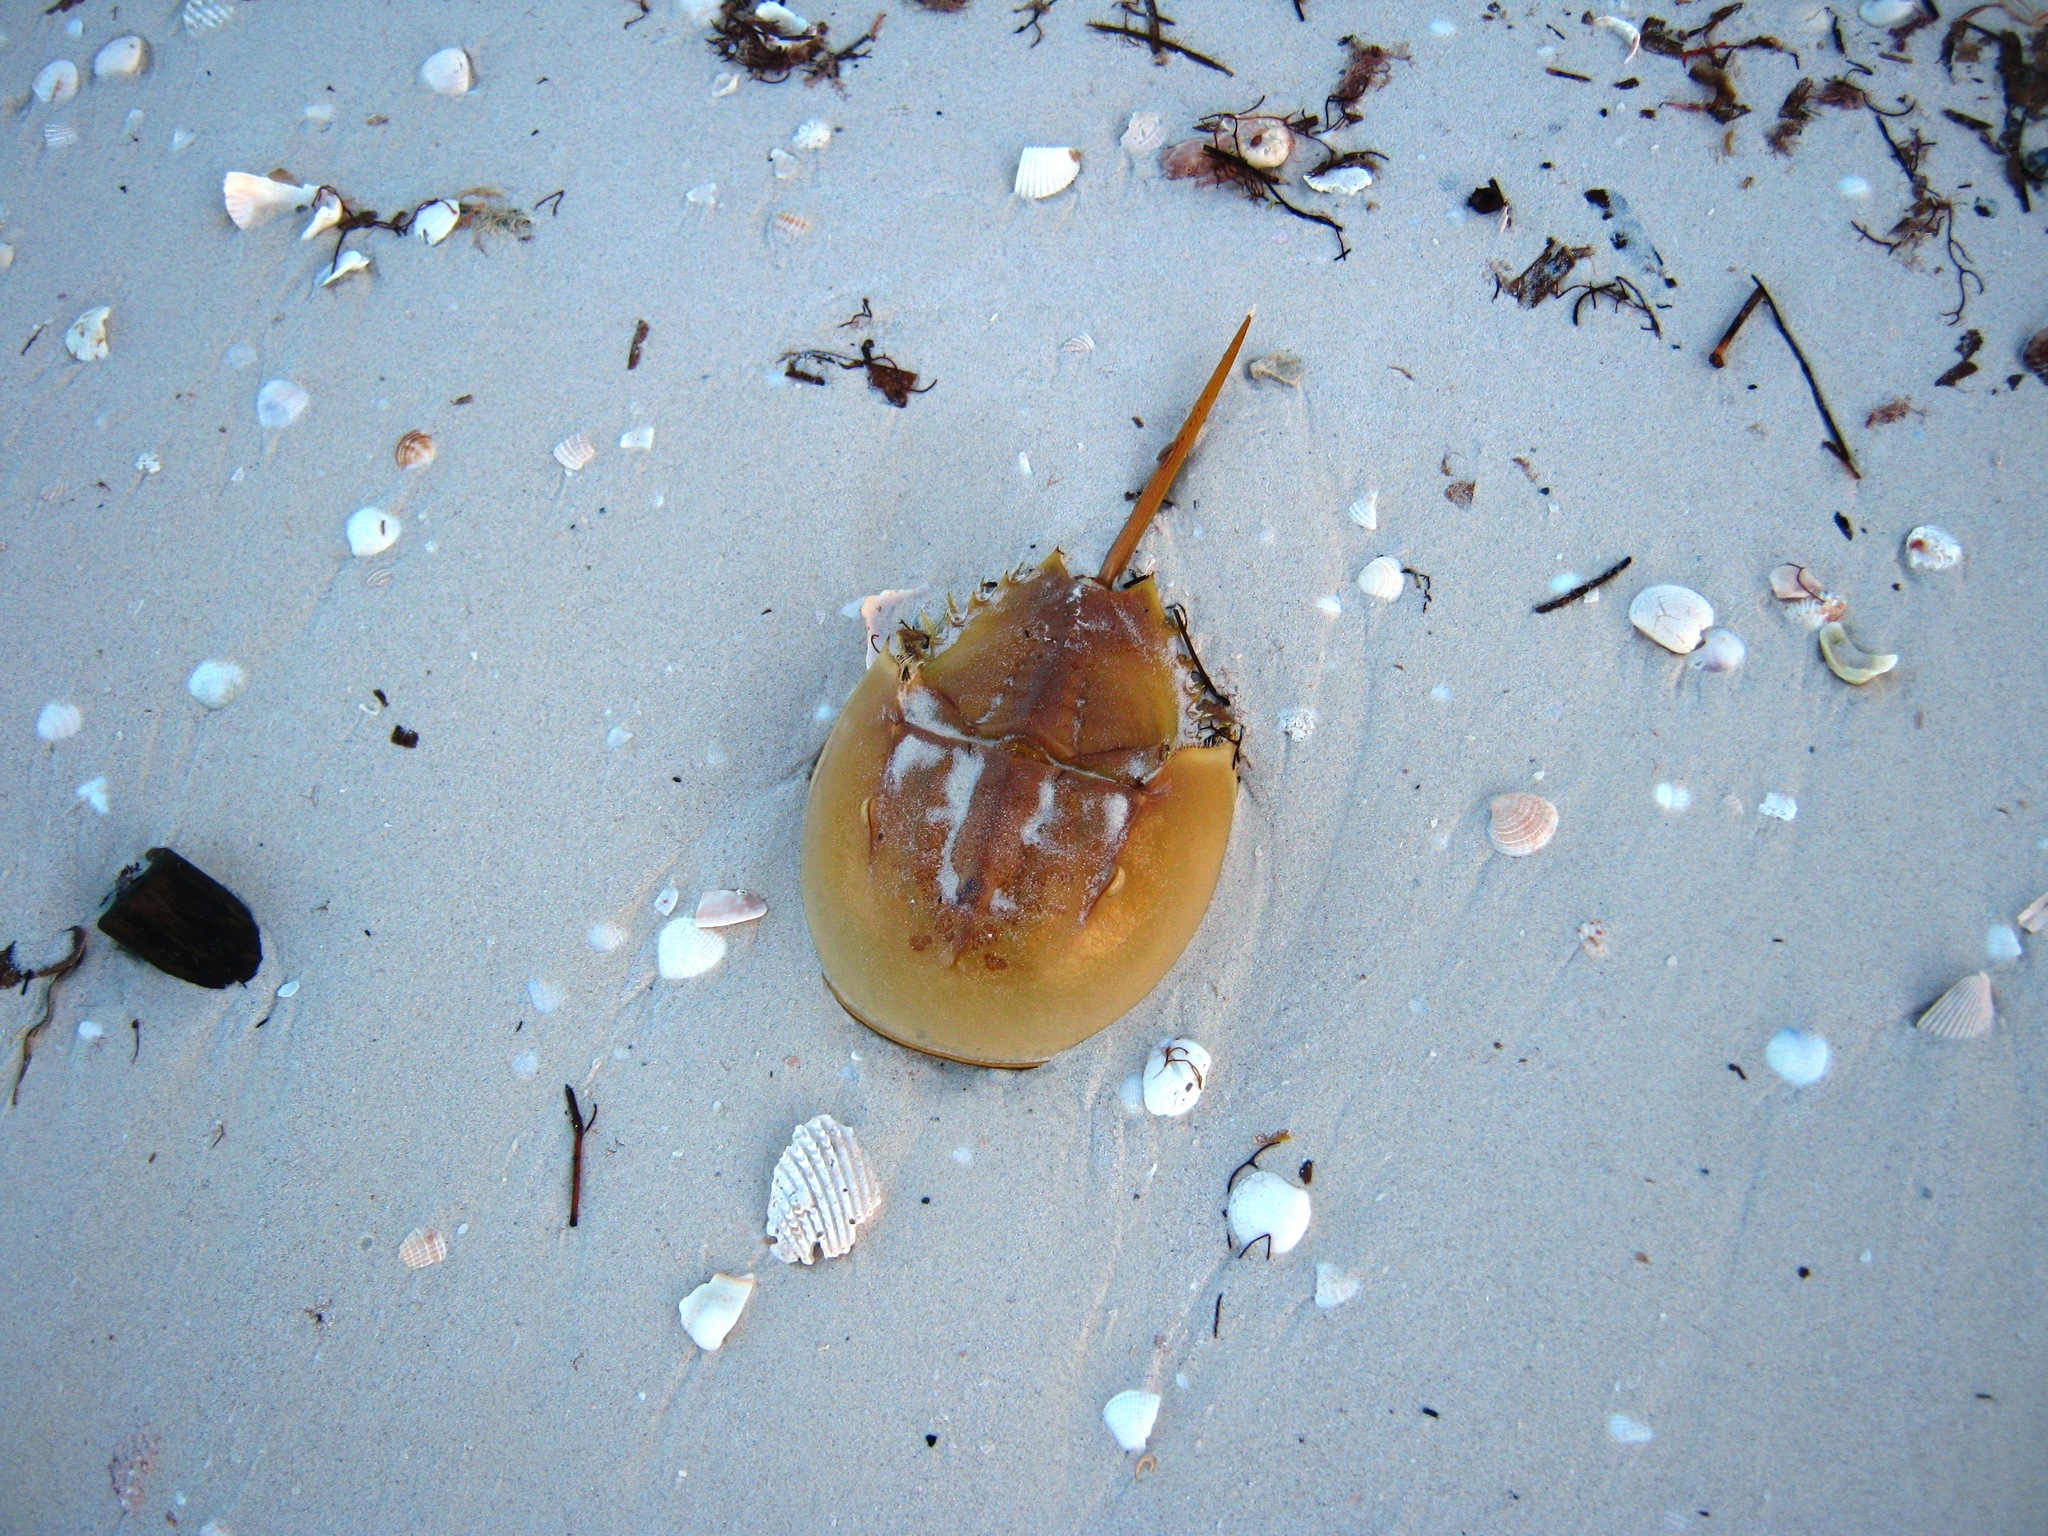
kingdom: Animalia
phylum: Arthropoda
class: Merostomata
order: Xiphosurida
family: Limulidae
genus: Limulus
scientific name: Limulus polyphemus
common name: Horseshoe crab
